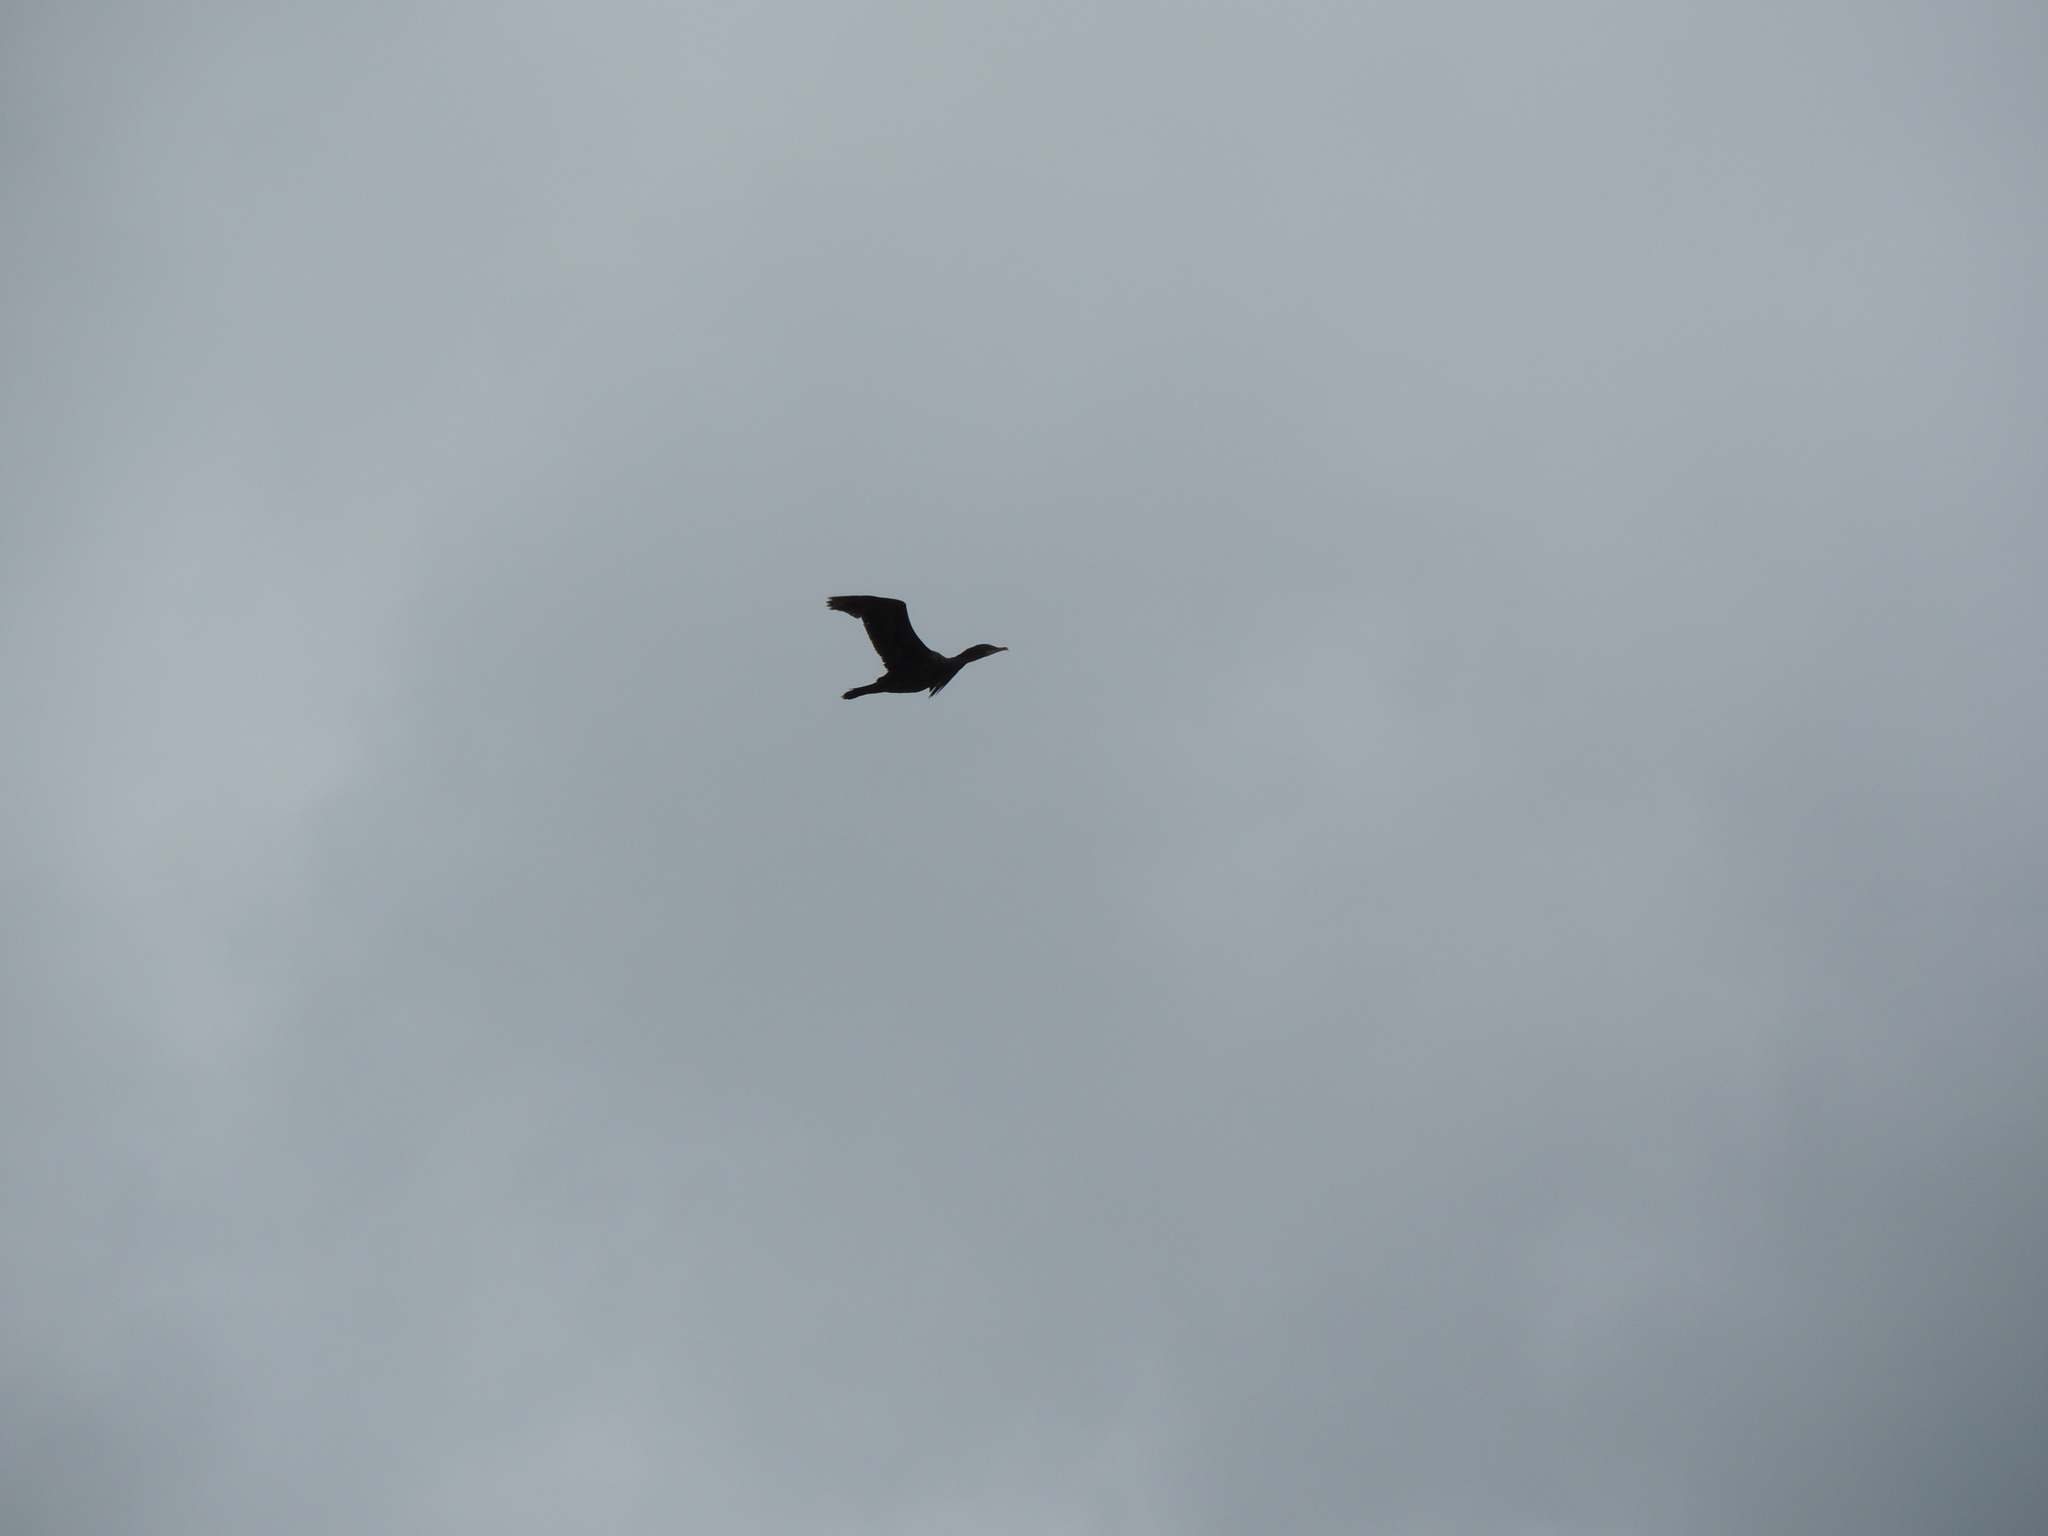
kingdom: Animalia
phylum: Chordata
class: Aves
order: Suliformes
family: Phalacrocoracidae
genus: Phalacrocorax
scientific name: Phalacrocorax auritus
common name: Double-crested cormorant
